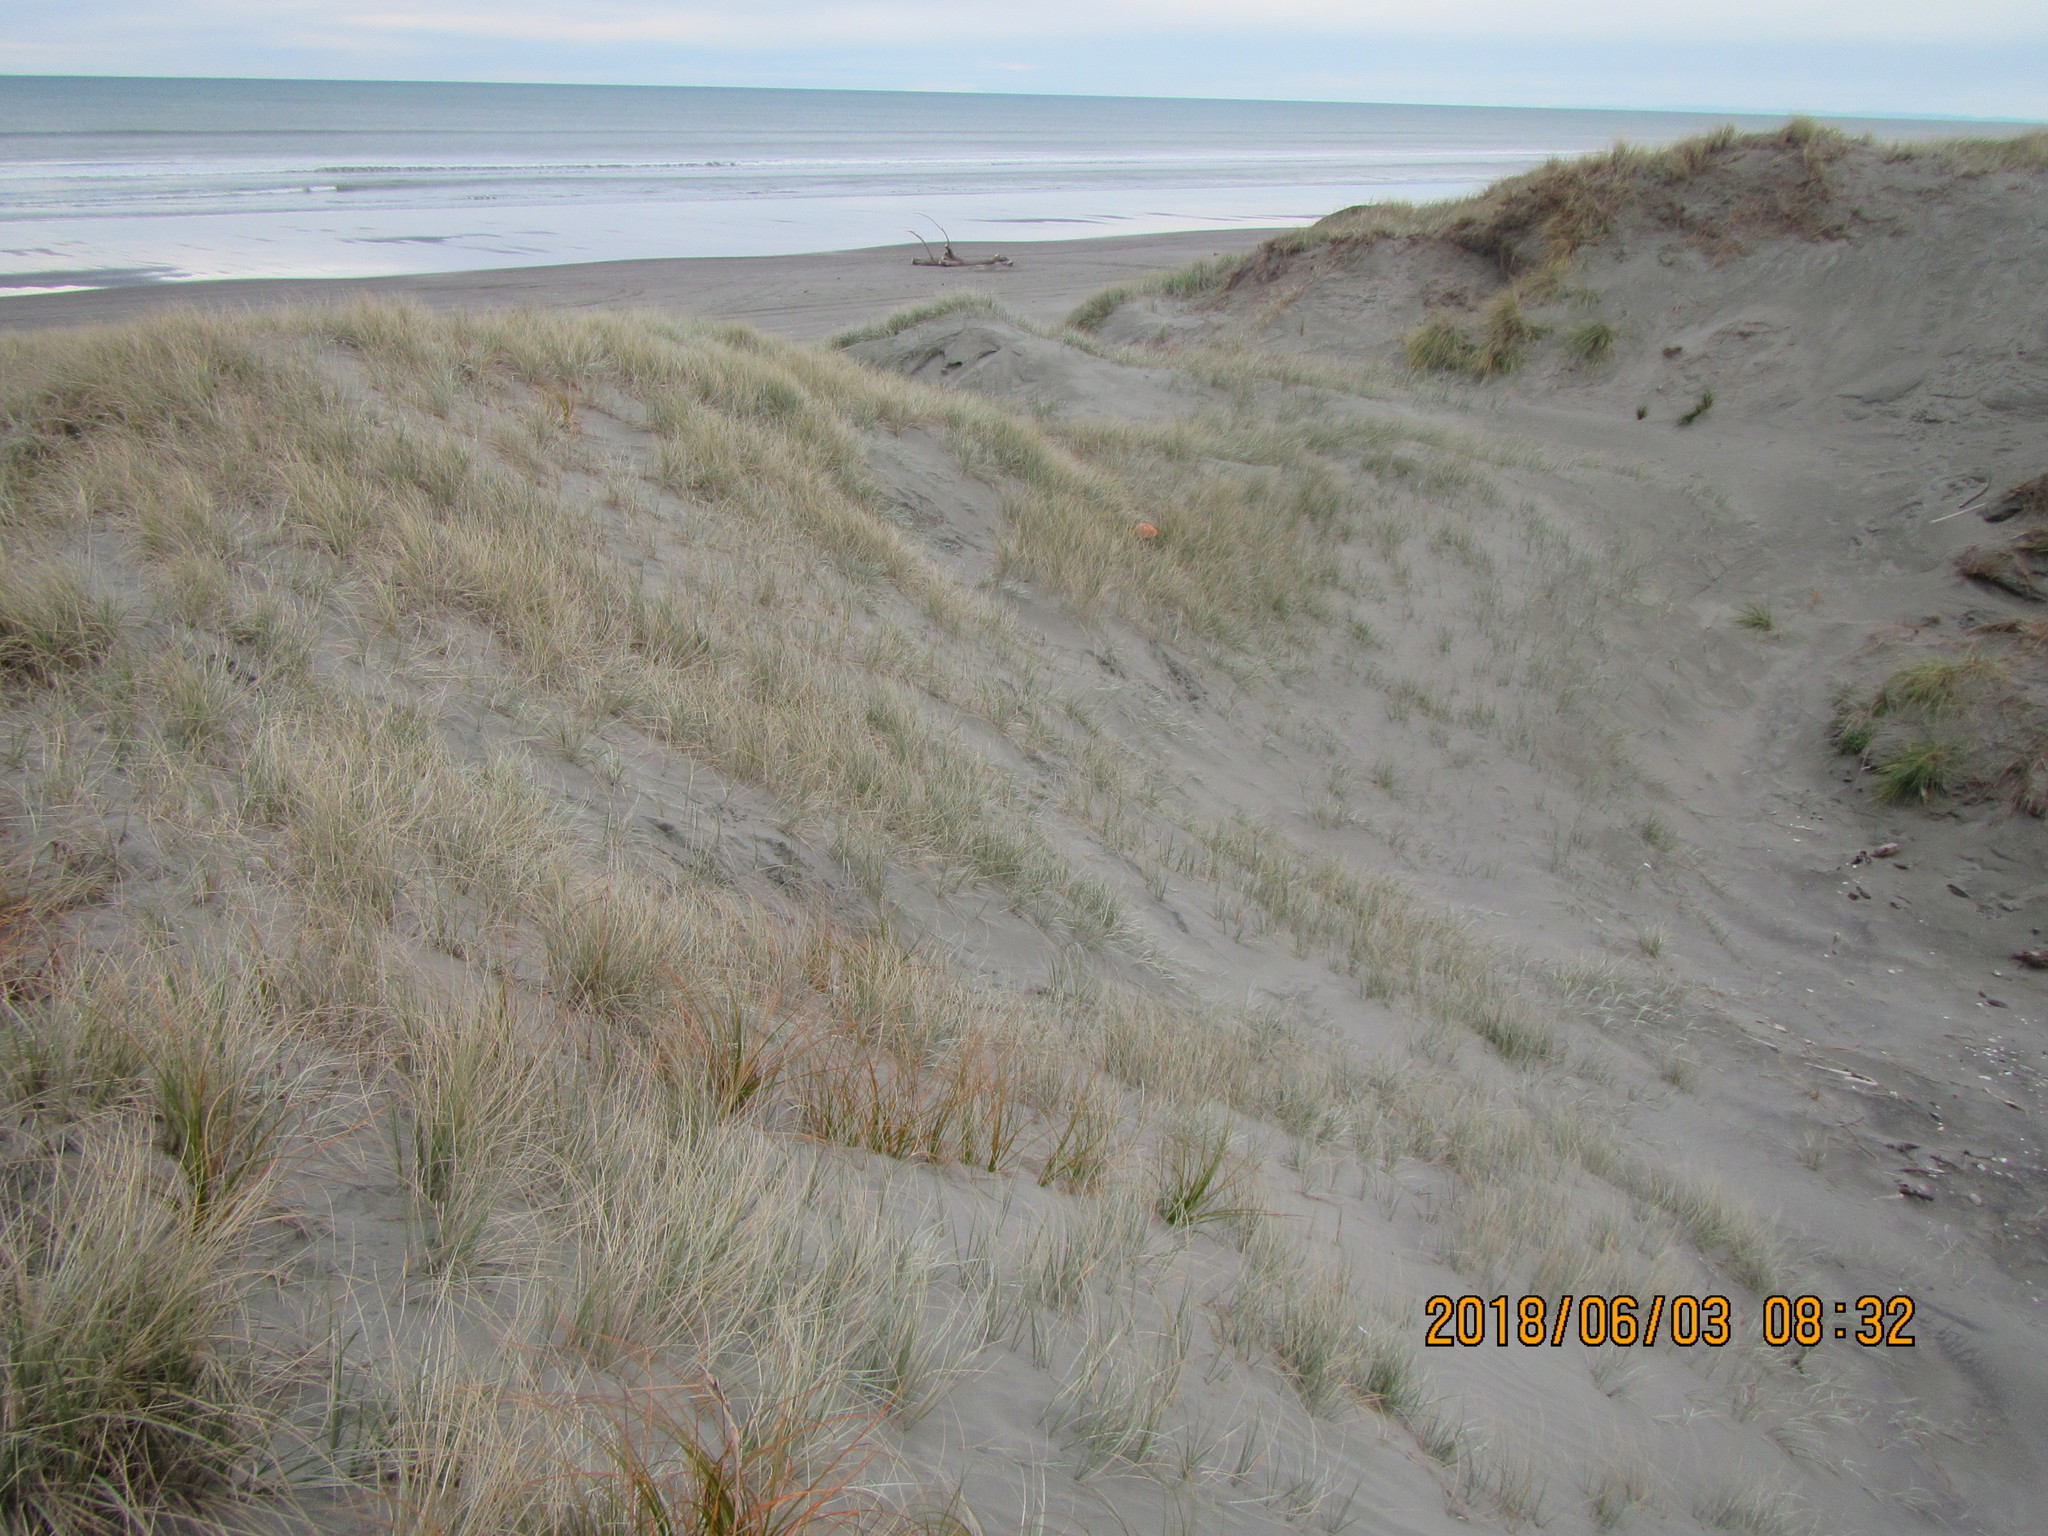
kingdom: Animalia
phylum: Mollusca
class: Gastropoda
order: Stylommatophora
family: Geomitridae
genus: Xeroplexa
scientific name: Xeroplexa intersecta
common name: Wrinkled snail
